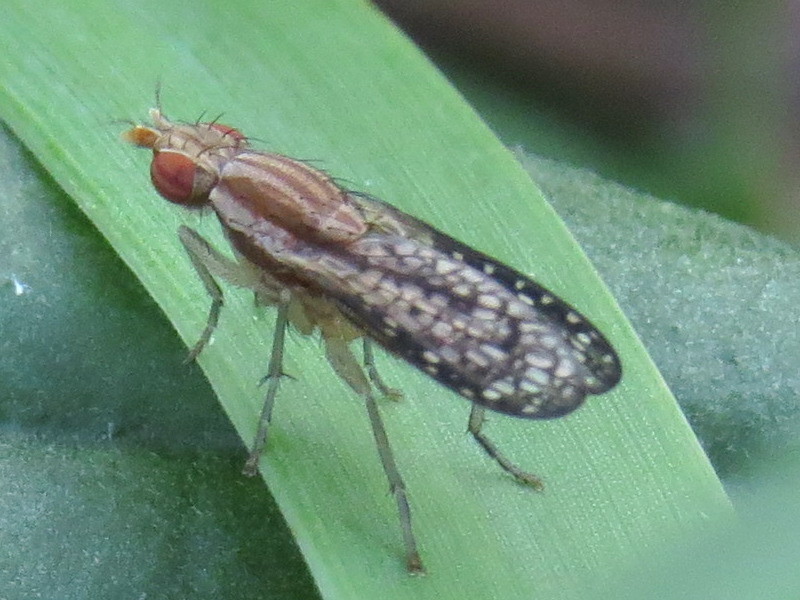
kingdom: Animalia
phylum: Arthropoda
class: Insecta
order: Diptera
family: Sciomyzidae
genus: Trypetoptera
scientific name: Trypetoptera canadensis
